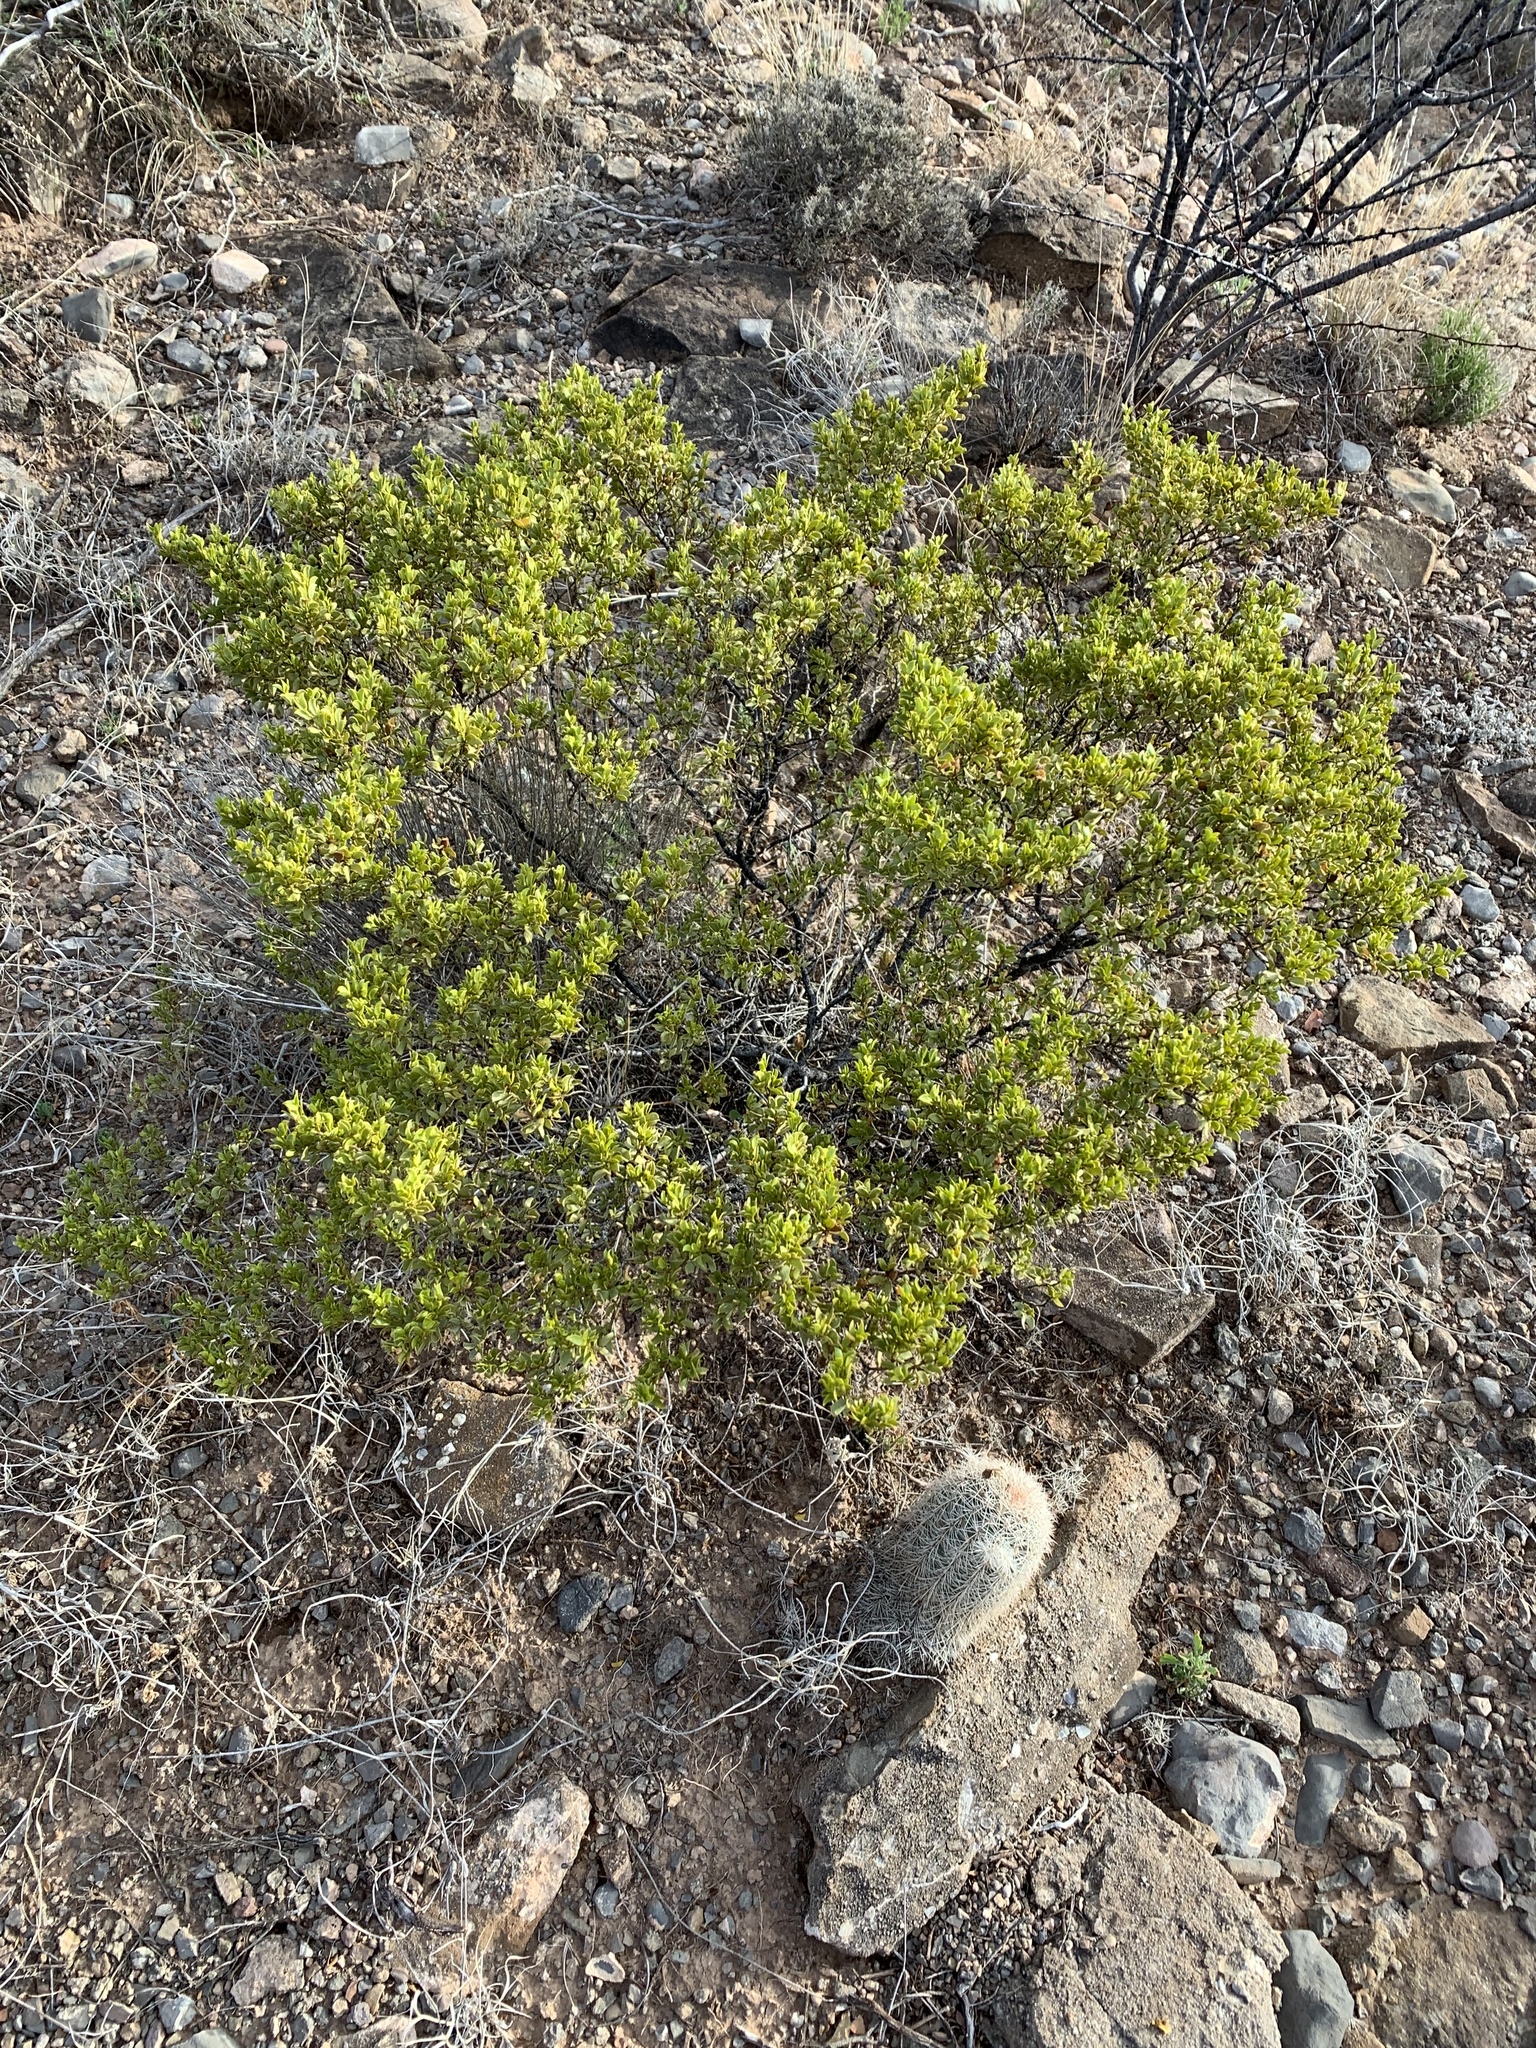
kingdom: Plantae
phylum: Tracheophyta
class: Magnoliopsida
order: Zygophyllales
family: Zygophyllaceae
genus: Larrea
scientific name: Larrea tridentata
